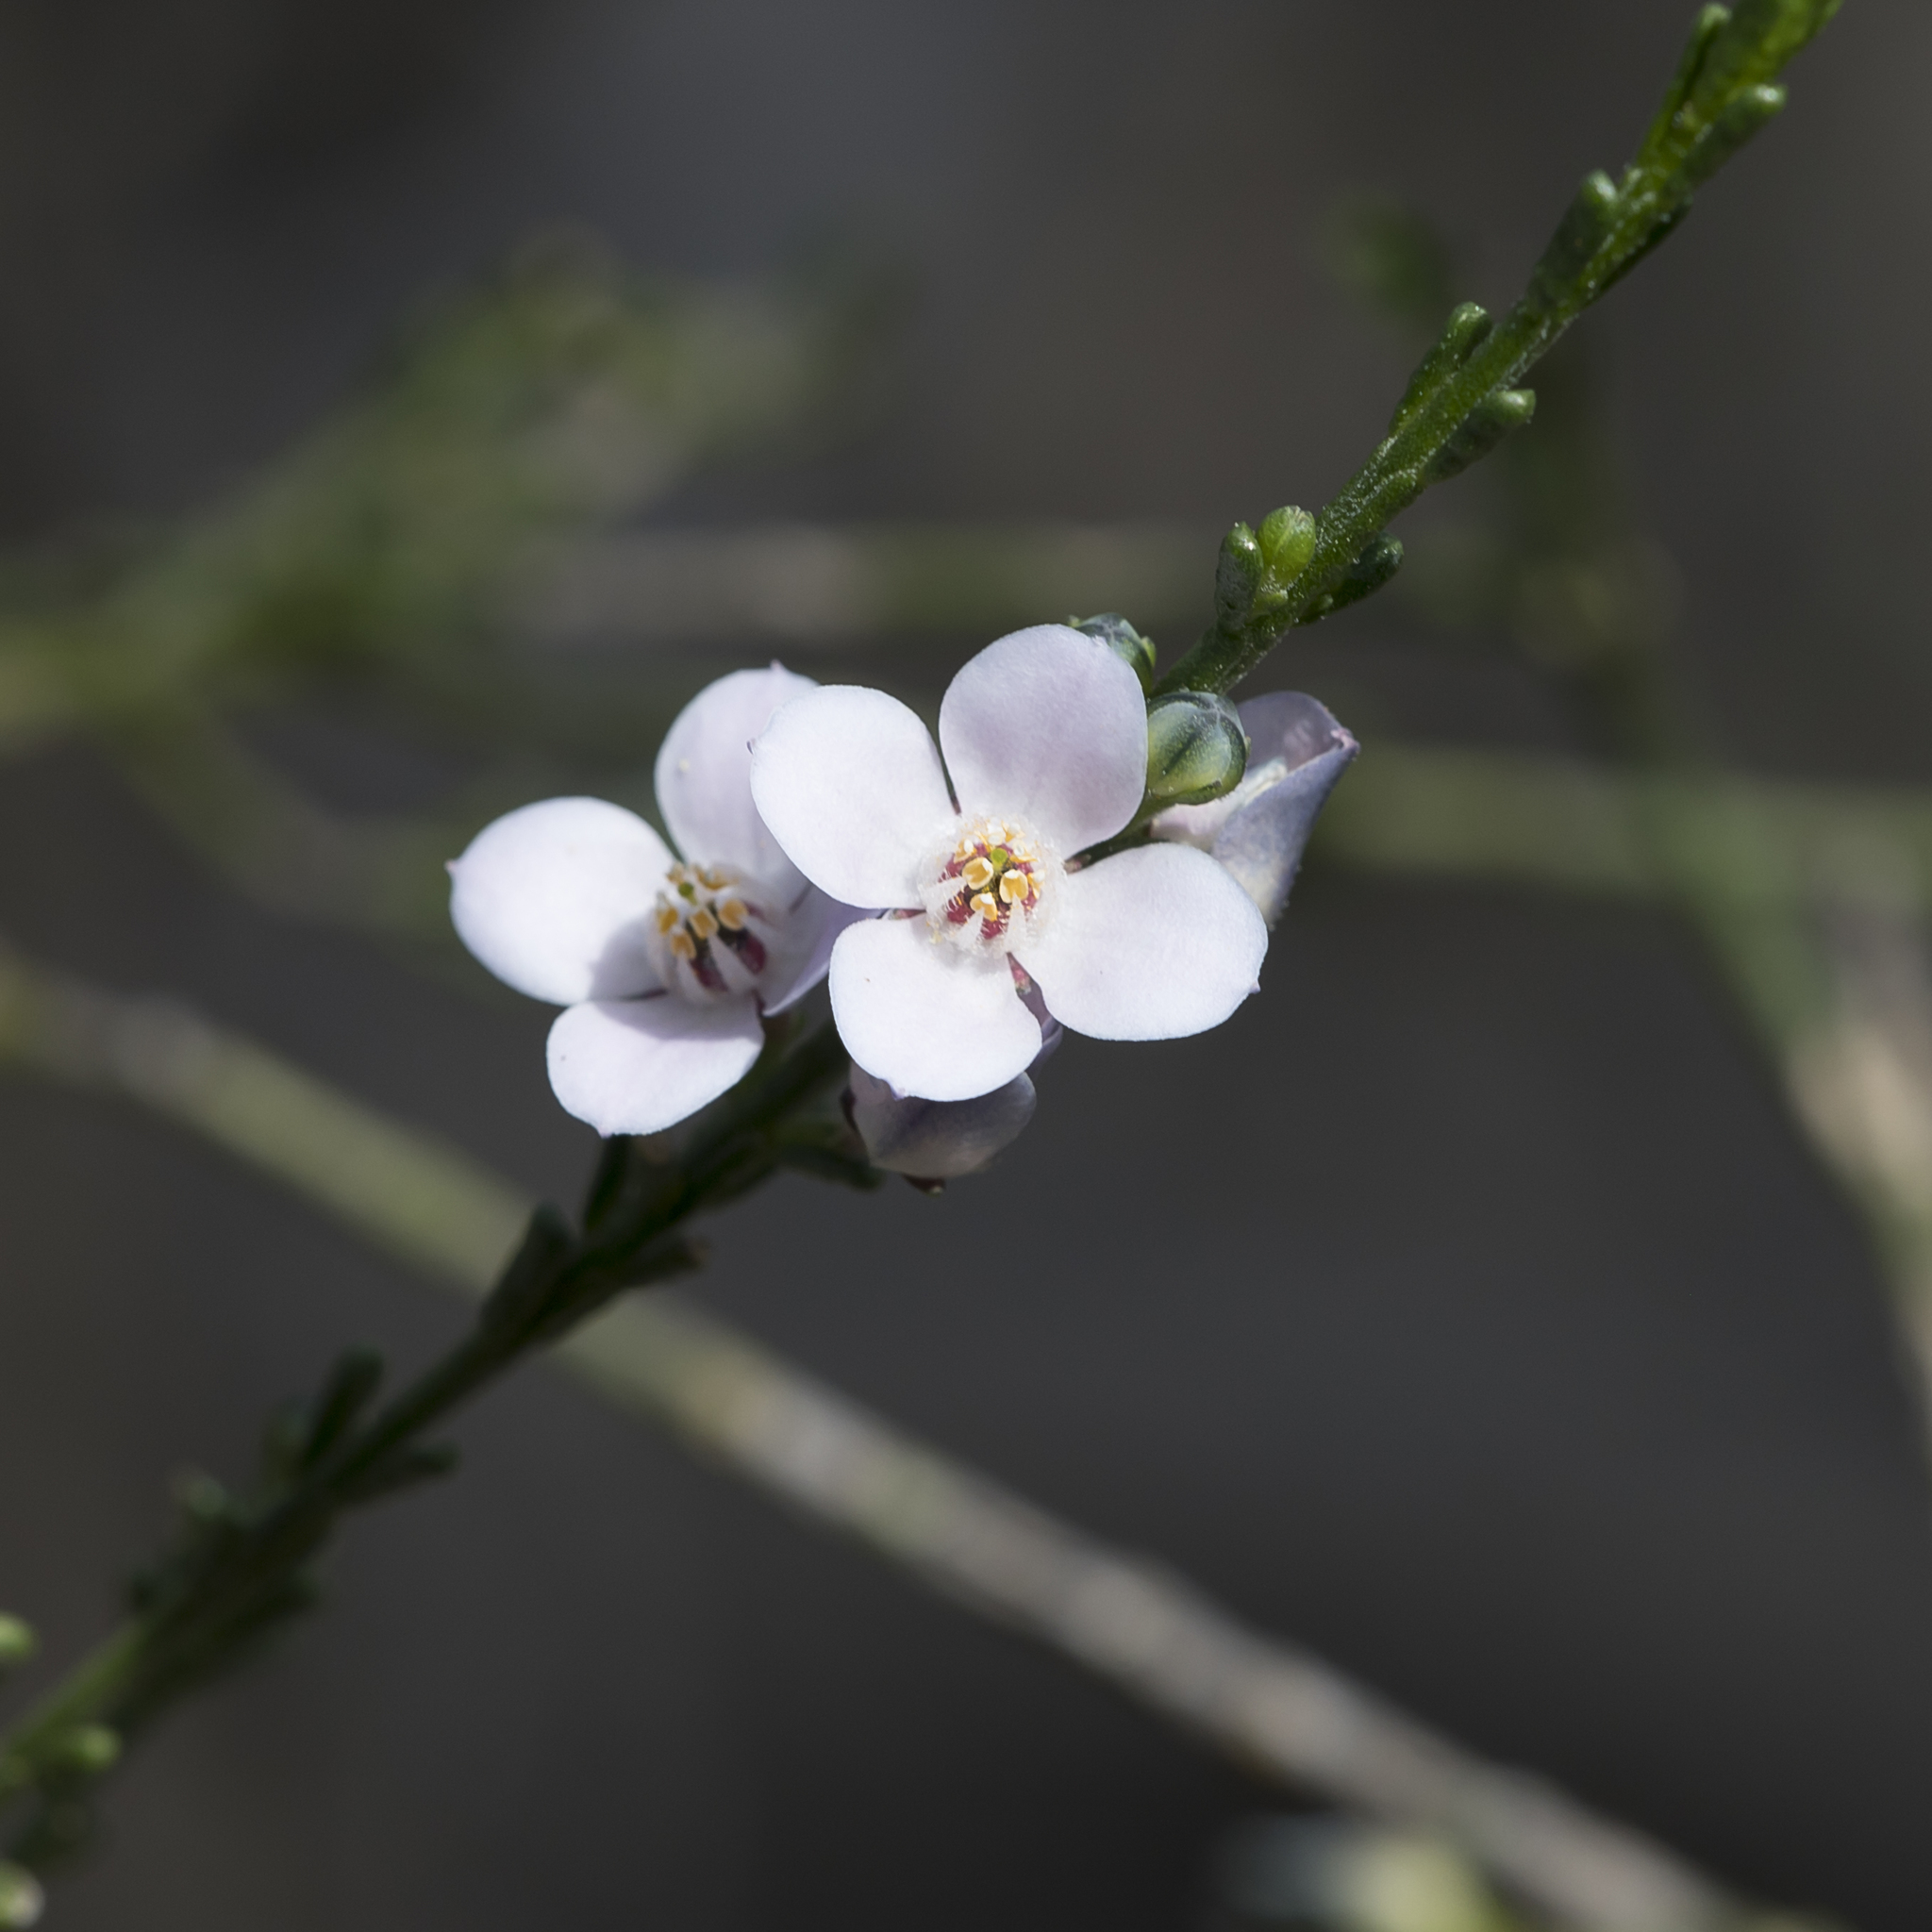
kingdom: Plantae
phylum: Tracheophyta
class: Magnoliopsida
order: Sapindales
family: Rutaceae
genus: Cyanothamnus
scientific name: Cyanothamnus coerulescens
